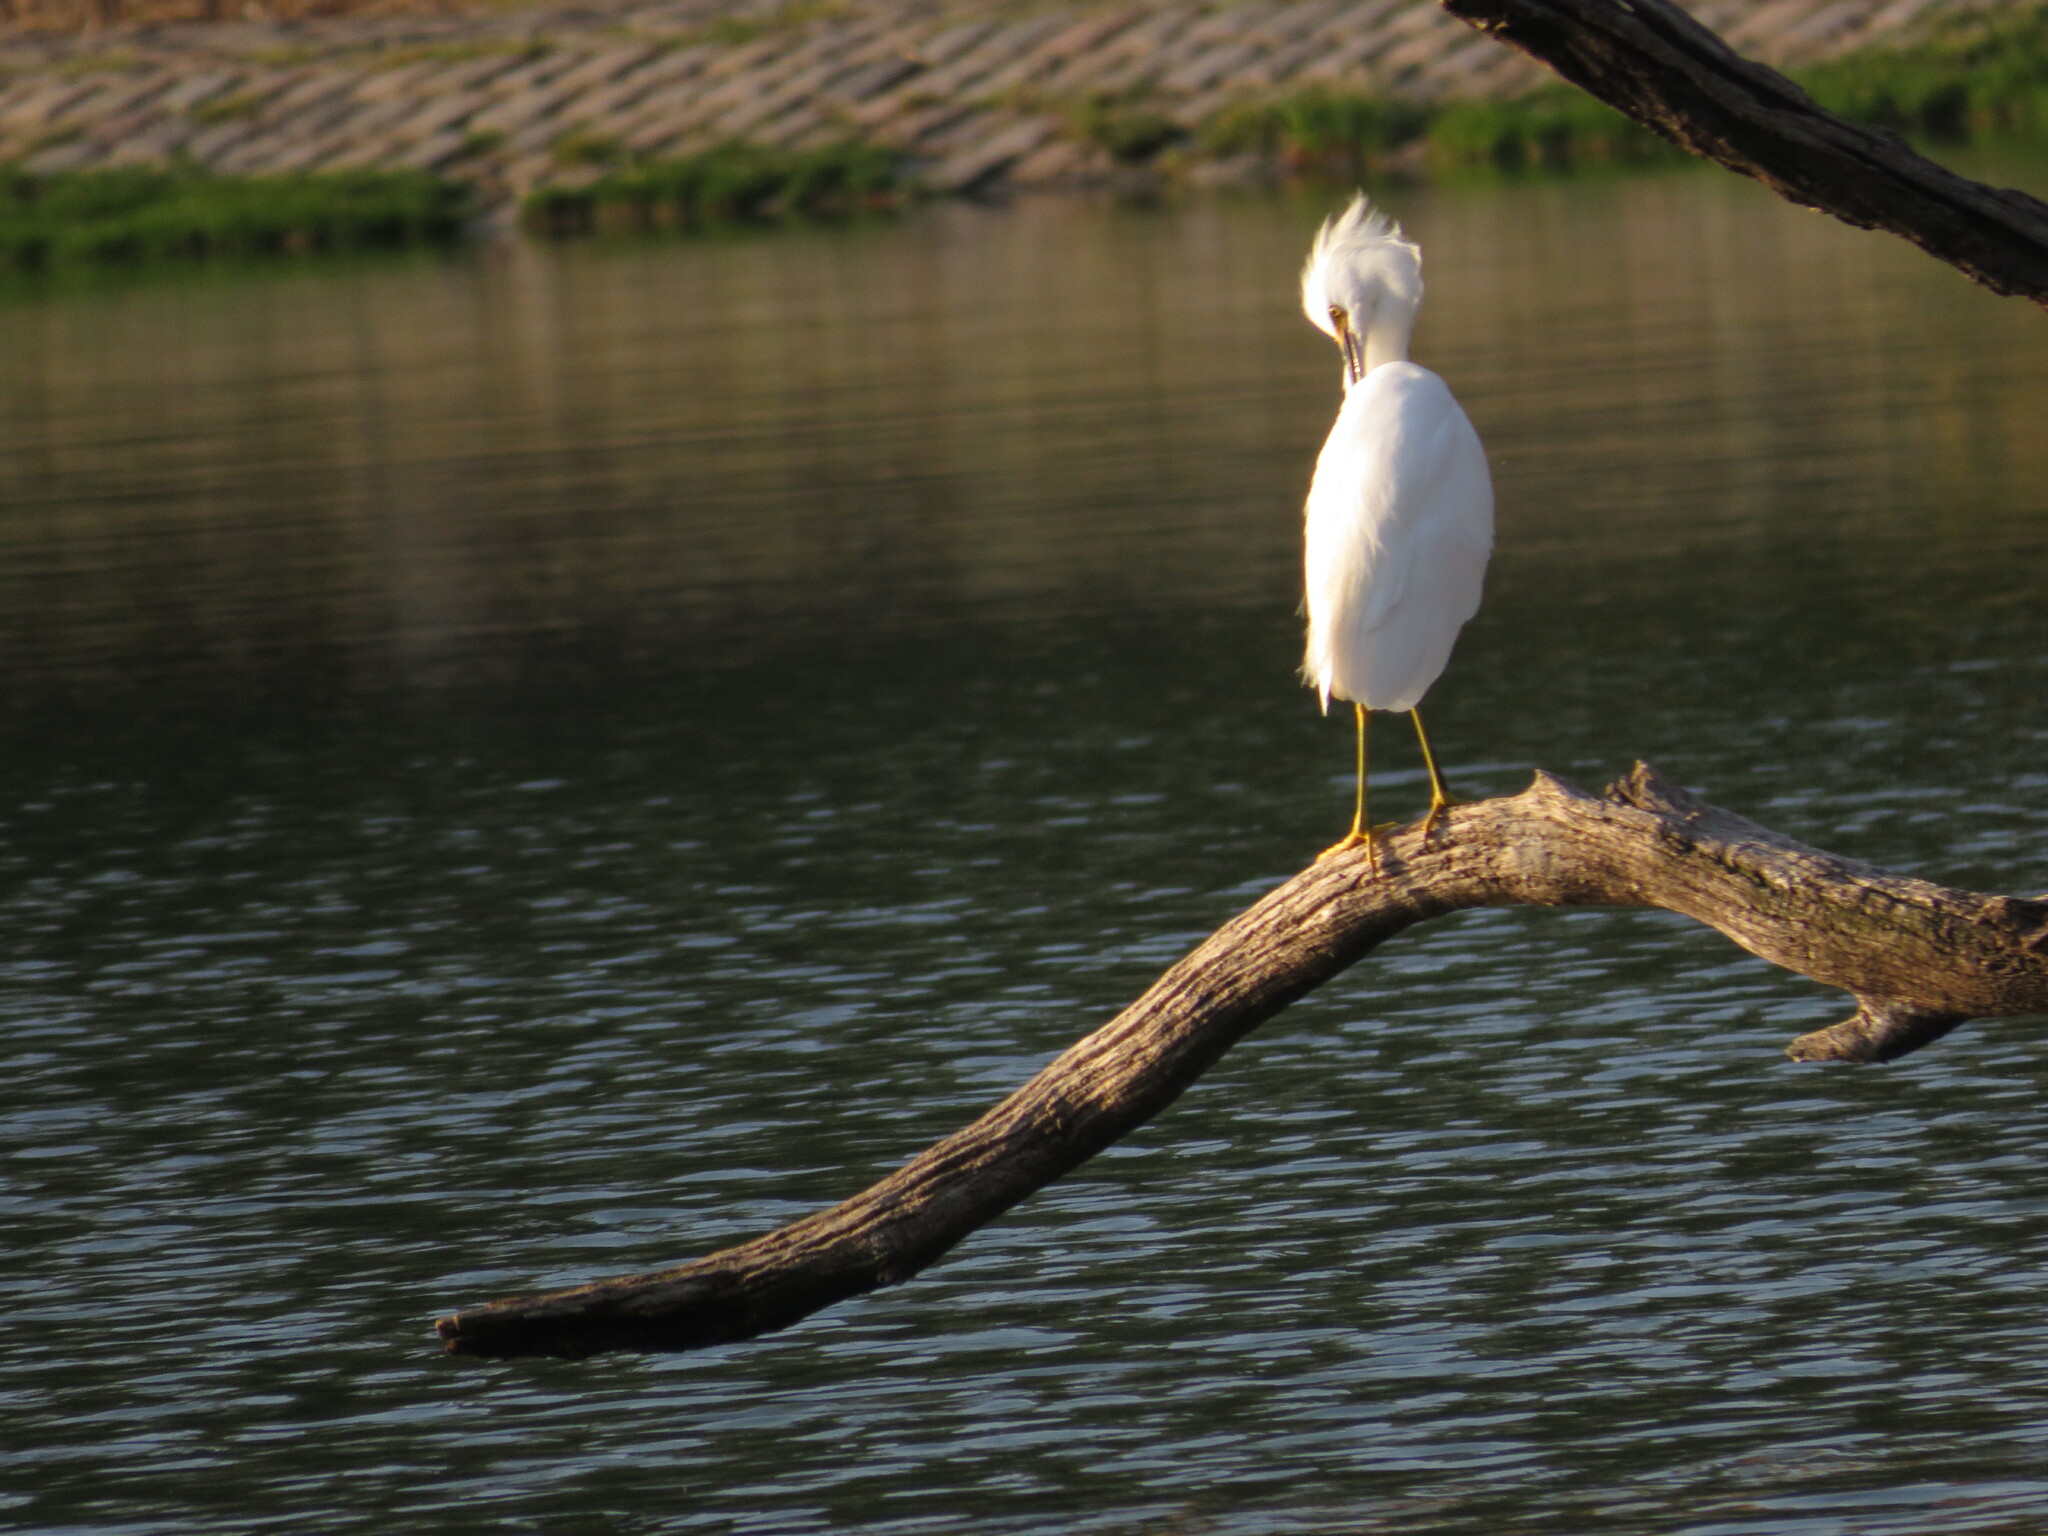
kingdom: Animalia
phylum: Chordata
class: Aves
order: Pelecaniformes
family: Ardeidae
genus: Egretta
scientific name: Egretta thula
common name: Snowy egret
